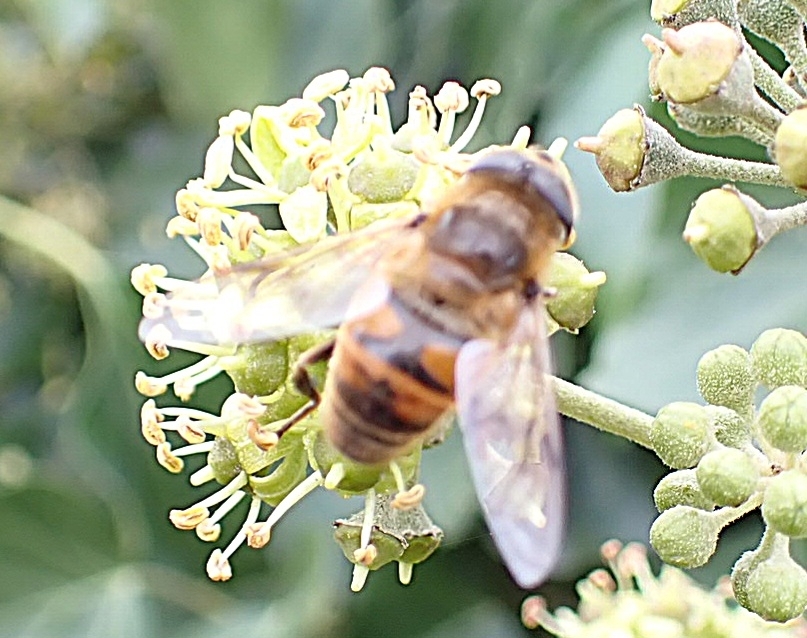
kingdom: Animalia
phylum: Arthropoda
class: Insecta
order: Diptera
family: Syrphidae
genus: Eristalis
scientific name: Eristalis tenax
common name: Drone fly
